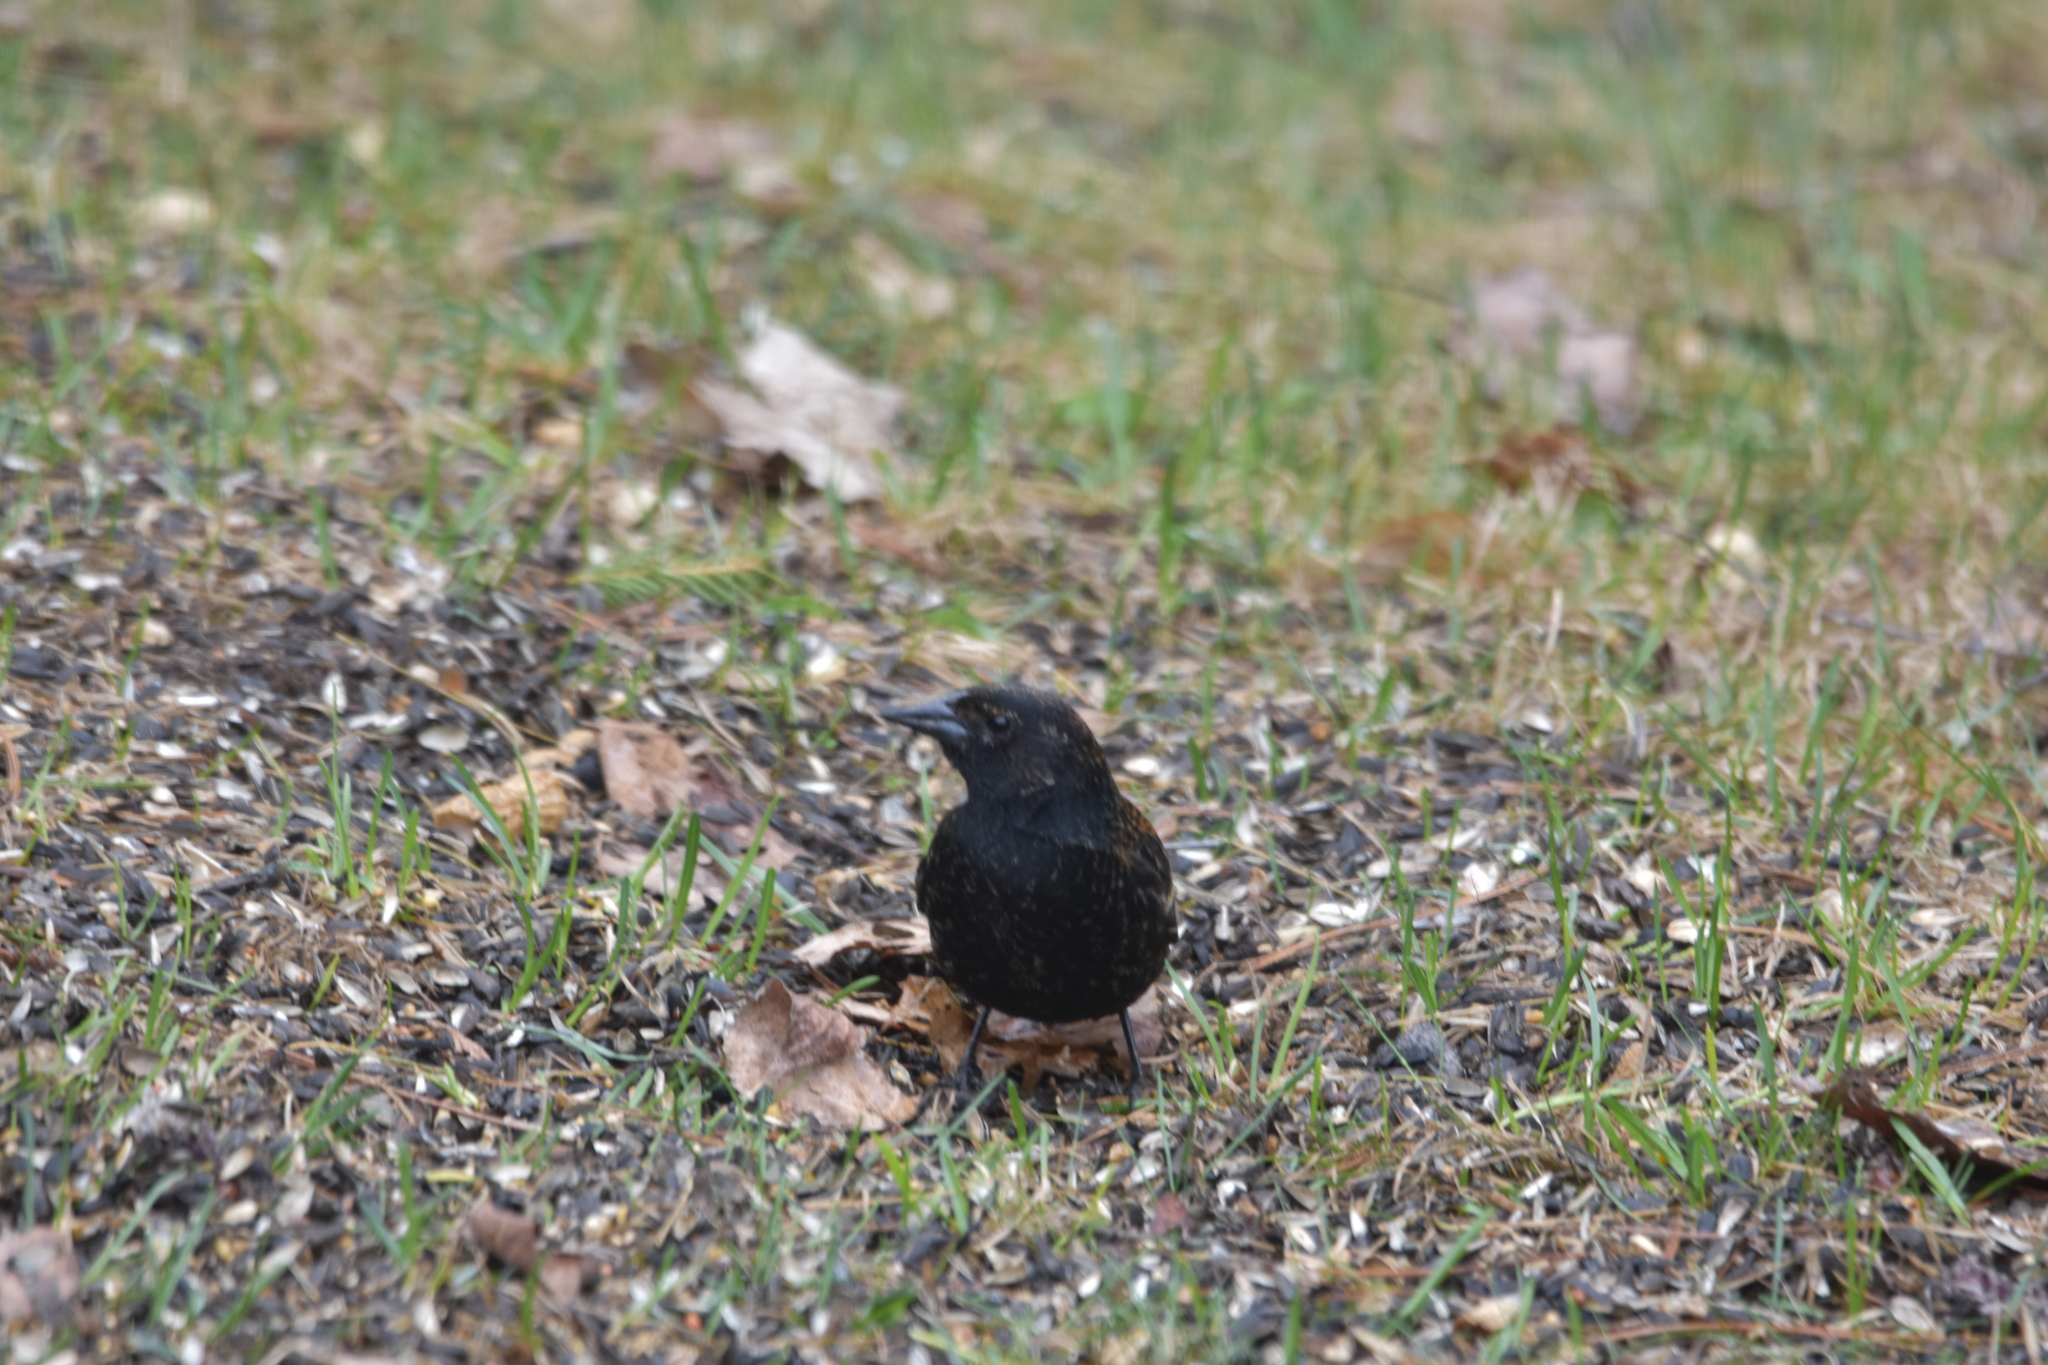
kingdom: Animalia
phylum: Chordata
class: Aves
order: Passeriformes
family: Icteridae
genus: Agelaius
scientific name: Agelaius phoeniceus
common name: Red-winged blackbird
